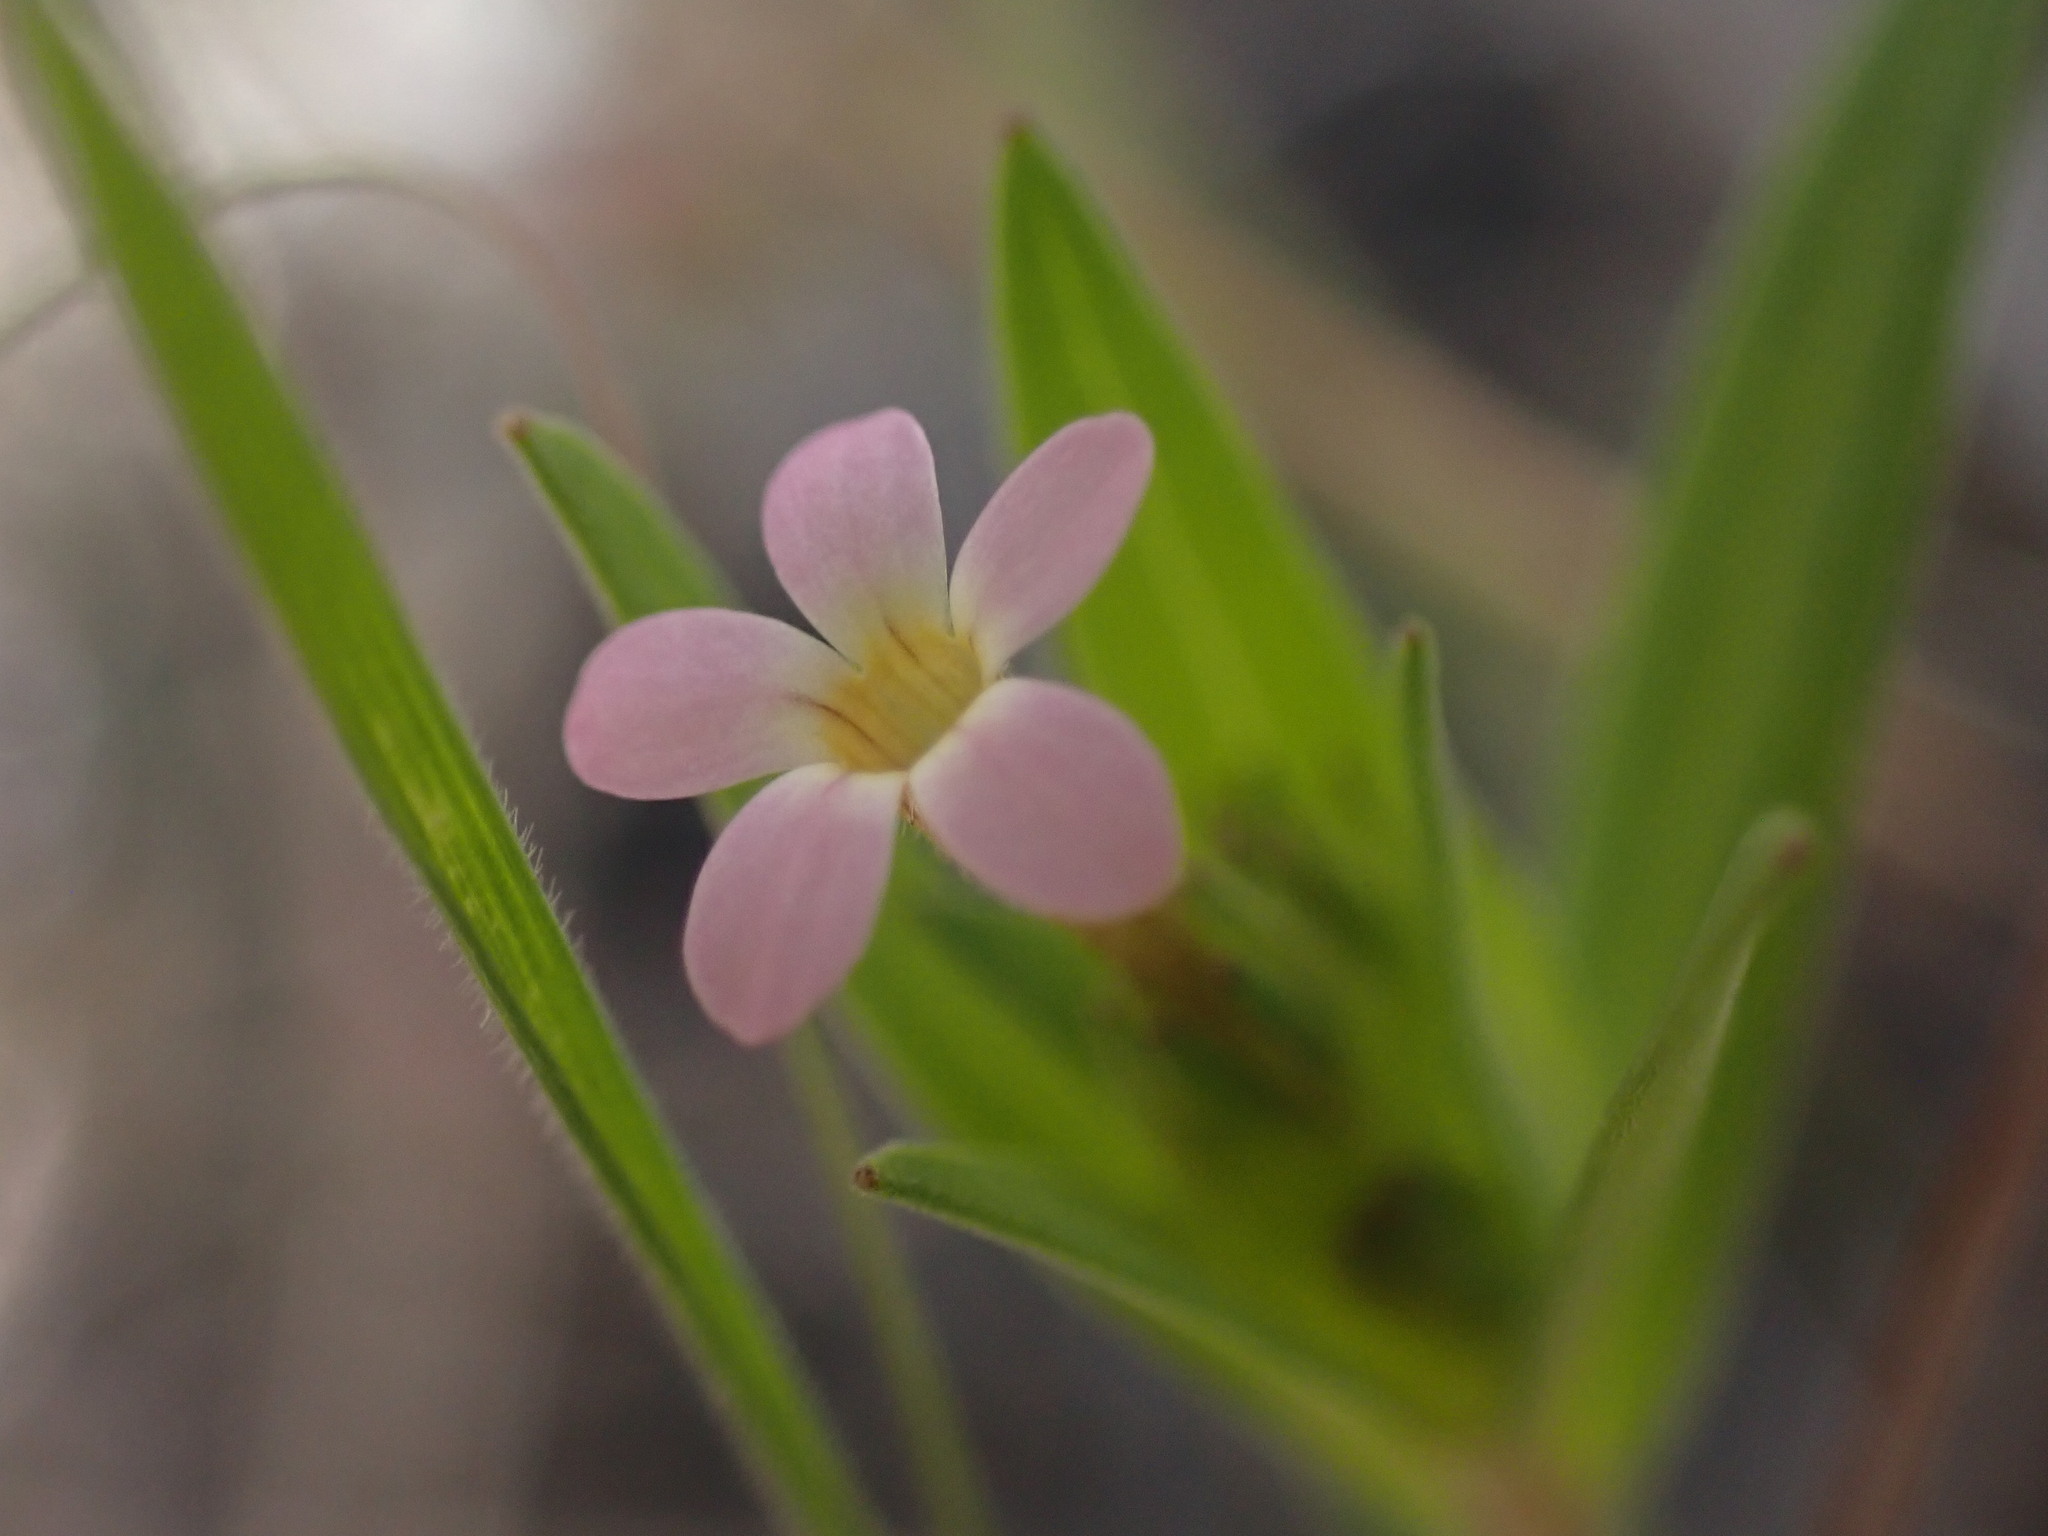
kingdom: Plantae
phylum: Tracheophyta
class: Magnoliopsida
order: Ericales
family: Polemoniaceae
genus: Collomia
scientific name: Collomia linearis
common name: Tiny trumpet
